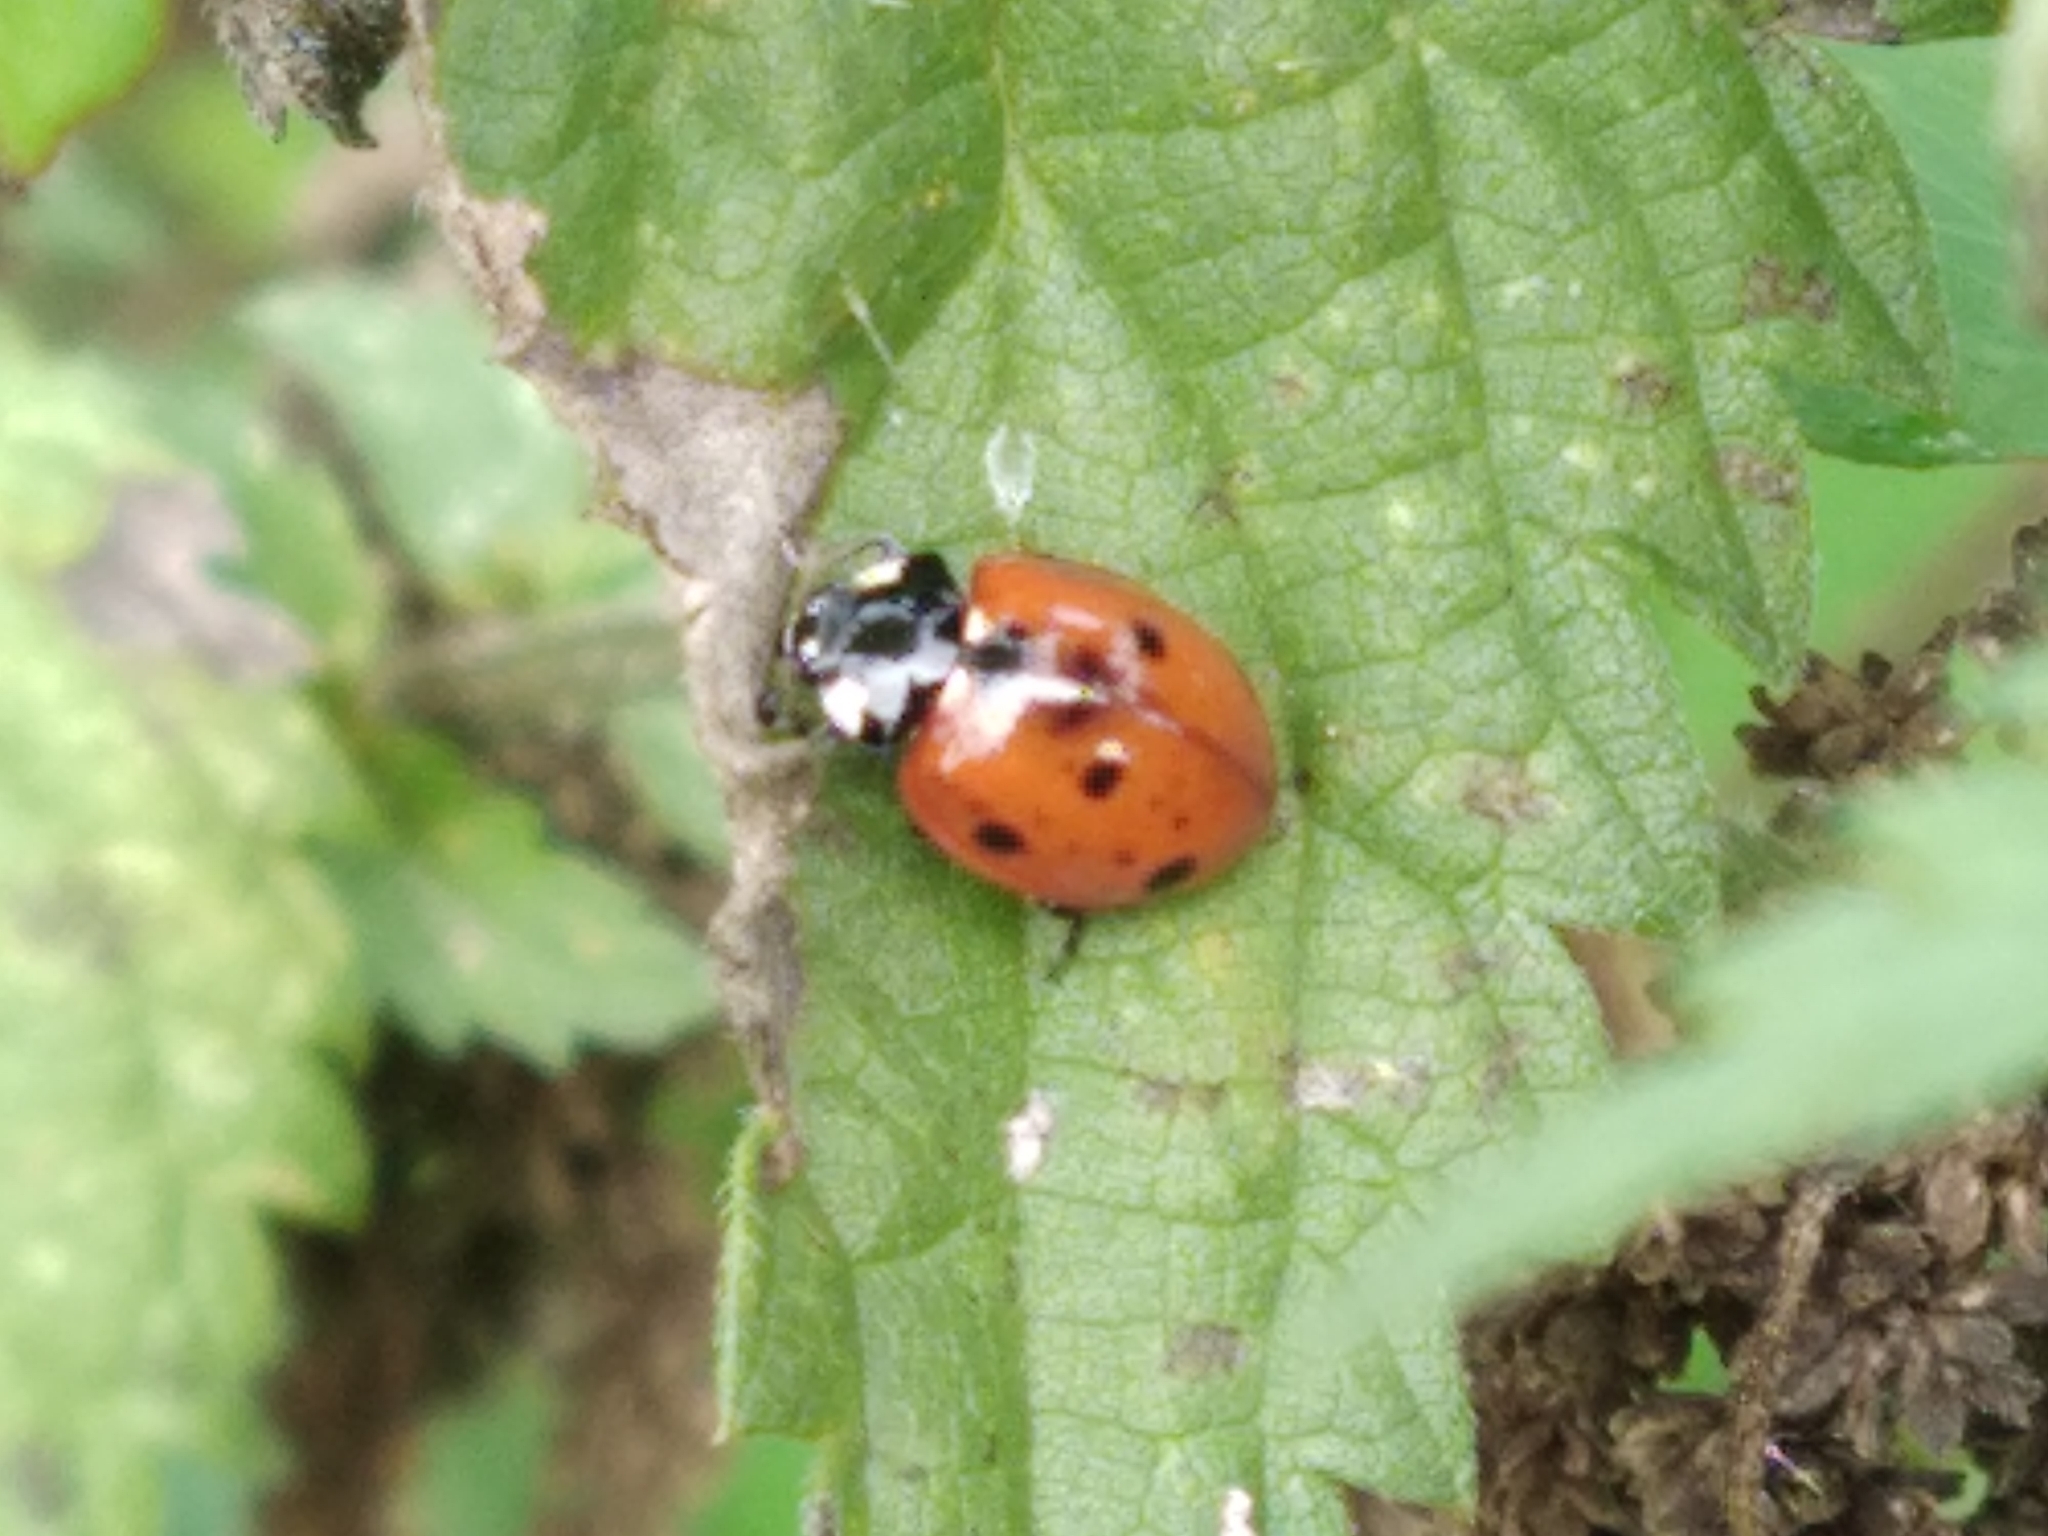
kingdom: Animalia
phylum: Arthropoda
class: Insecta
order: Coleoptera
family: Coccinellidae
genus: Coccinella
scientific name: Coccinella septempunctata
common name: Sevenspotted lady beetle
